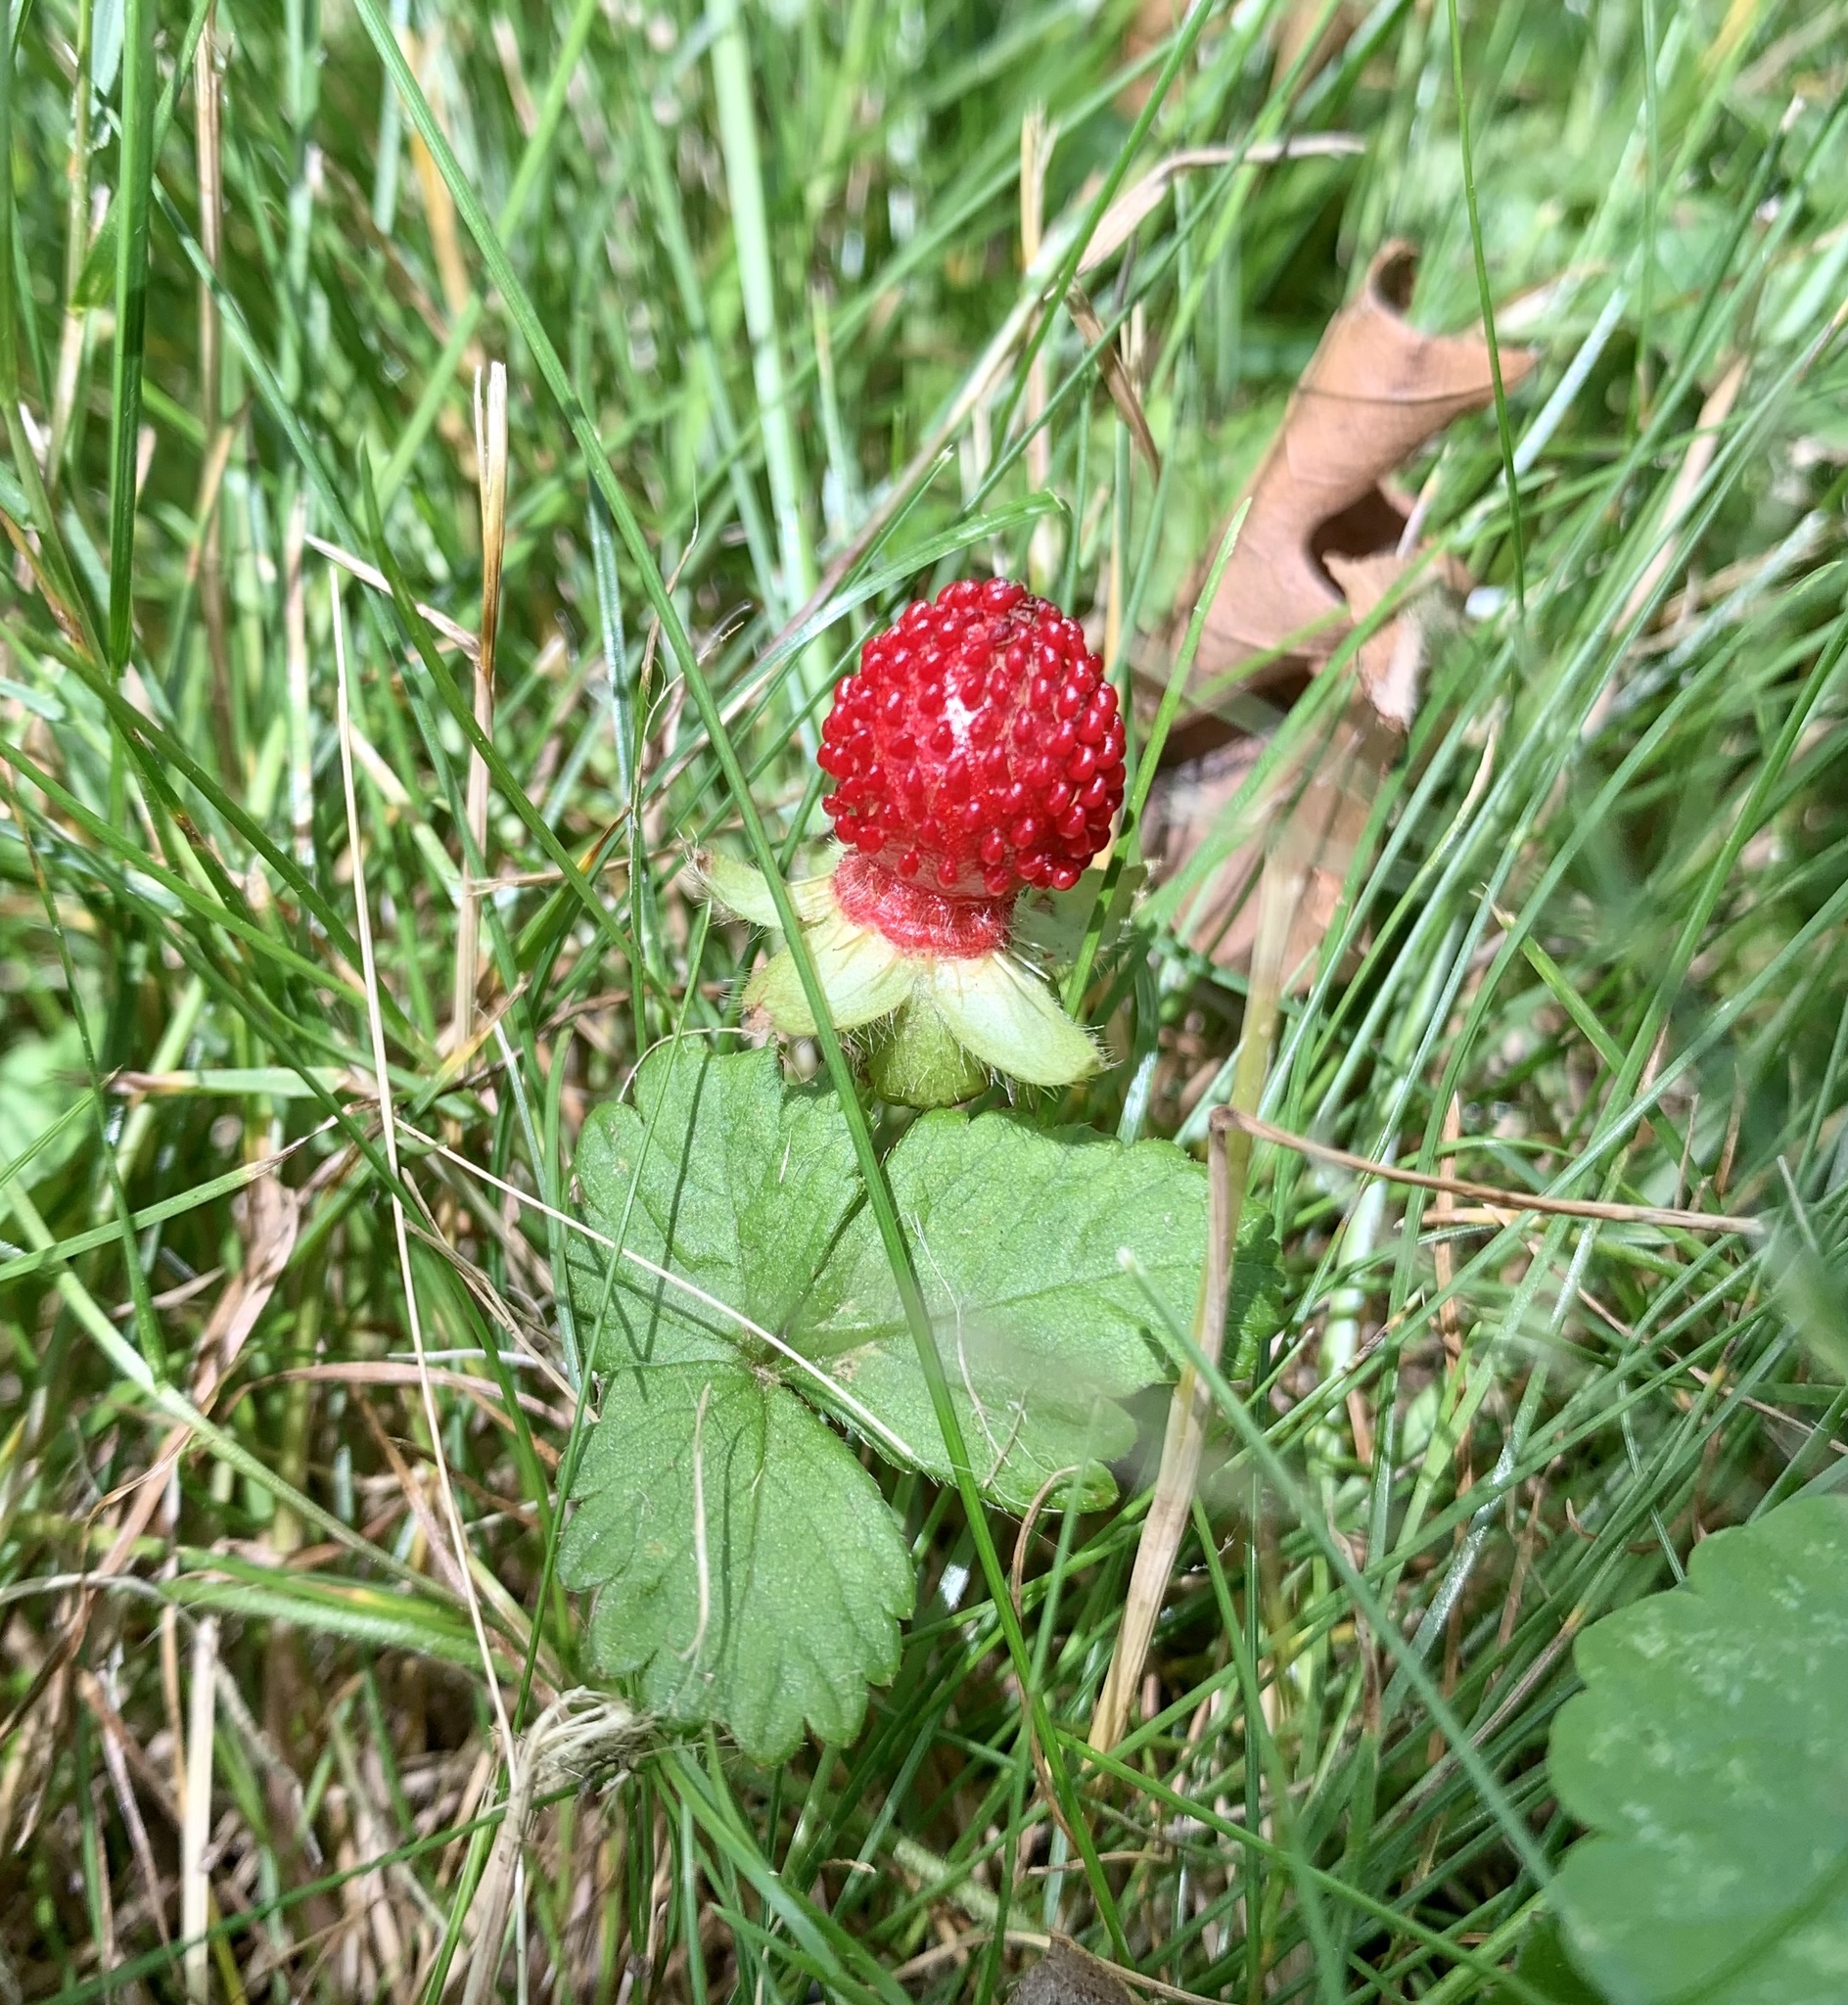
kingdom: Plantae
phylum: Tracheophyta
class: Magnoliopsida
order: Rosales
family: Rosaceae
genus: Potentilla
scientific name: Potentilla indica
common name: Yellow-flowered strawberry
